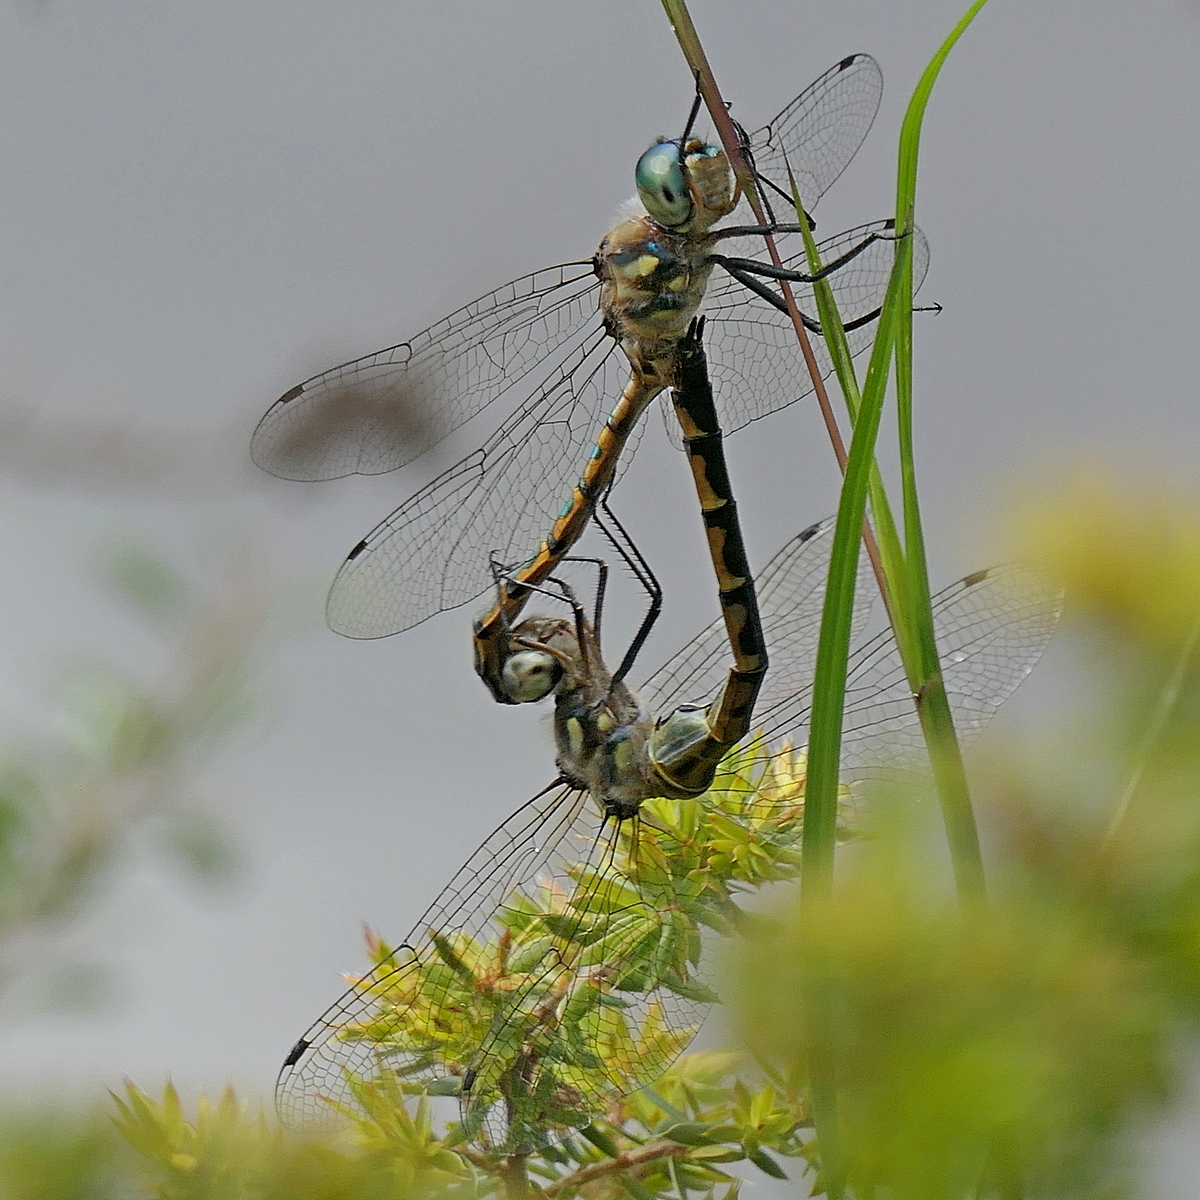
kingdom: Animalia
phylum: Arthropoda
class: Insecta
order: Odonata
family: Corduliidae
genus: Hemicordulia
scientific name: Hemicordulia australiae
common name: Sentry dragonfly
